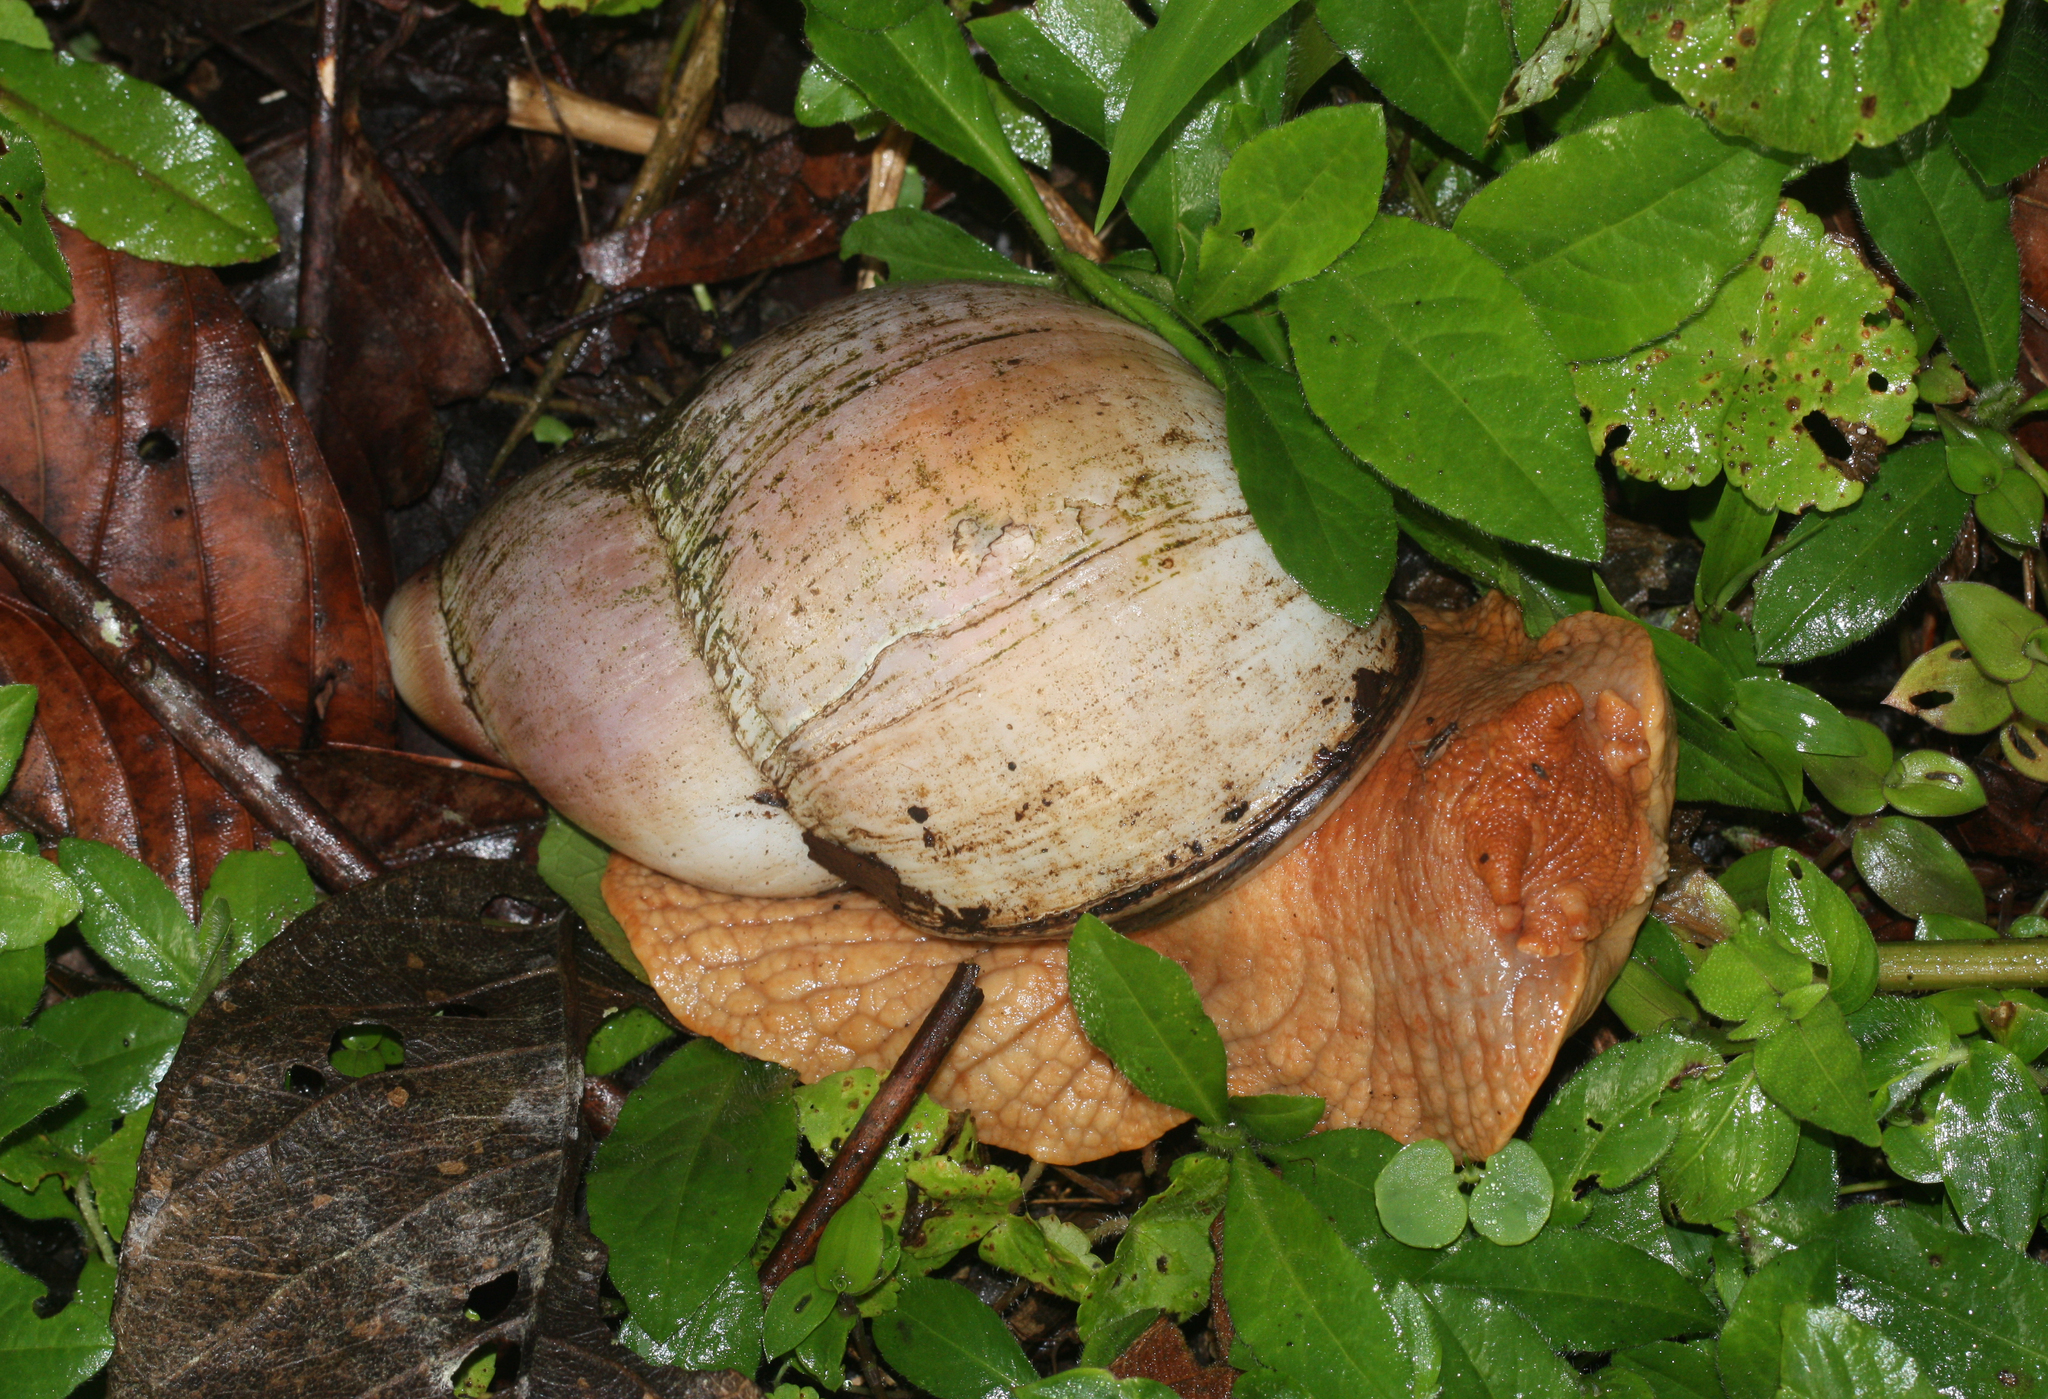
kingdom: Animalia
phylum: Mollusca
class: Gastropoda
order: Stylommatophora
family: Strophocheilidae
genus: Megalobulimus
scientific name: Megalobulimus popelairianus
